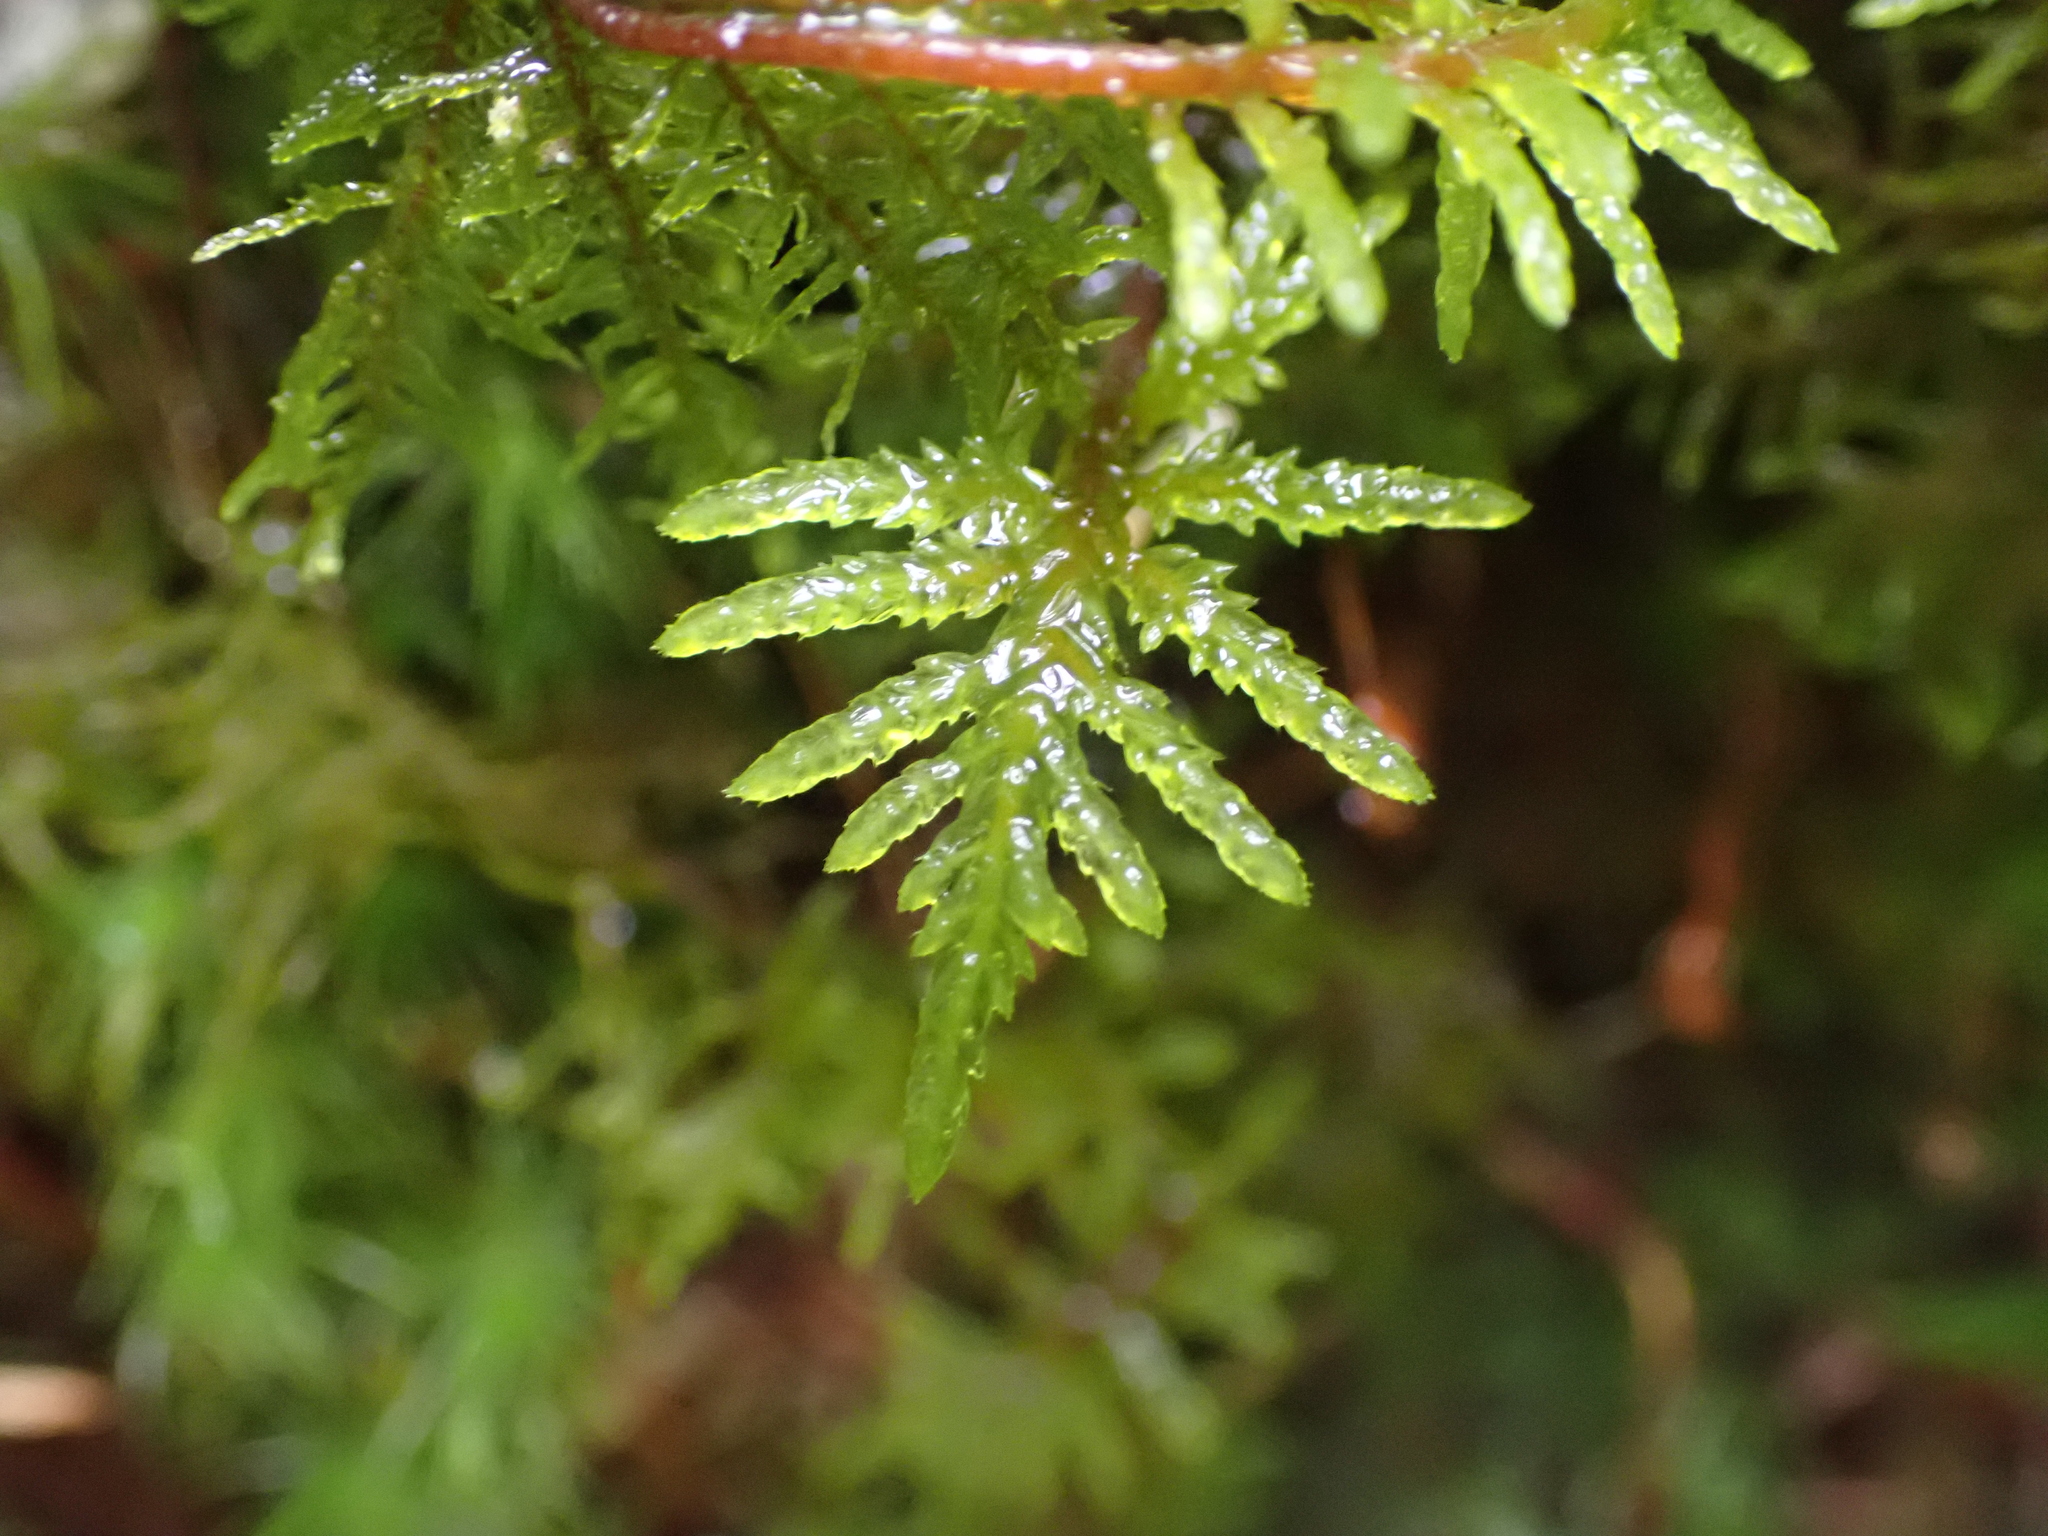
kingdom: Plantae
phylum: Bryophyta
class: Bryopsida
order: Hypnales
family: Hylocomiaceae
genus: Hylocomium
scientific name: Hylocomium splendens
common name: Stairstep moss
